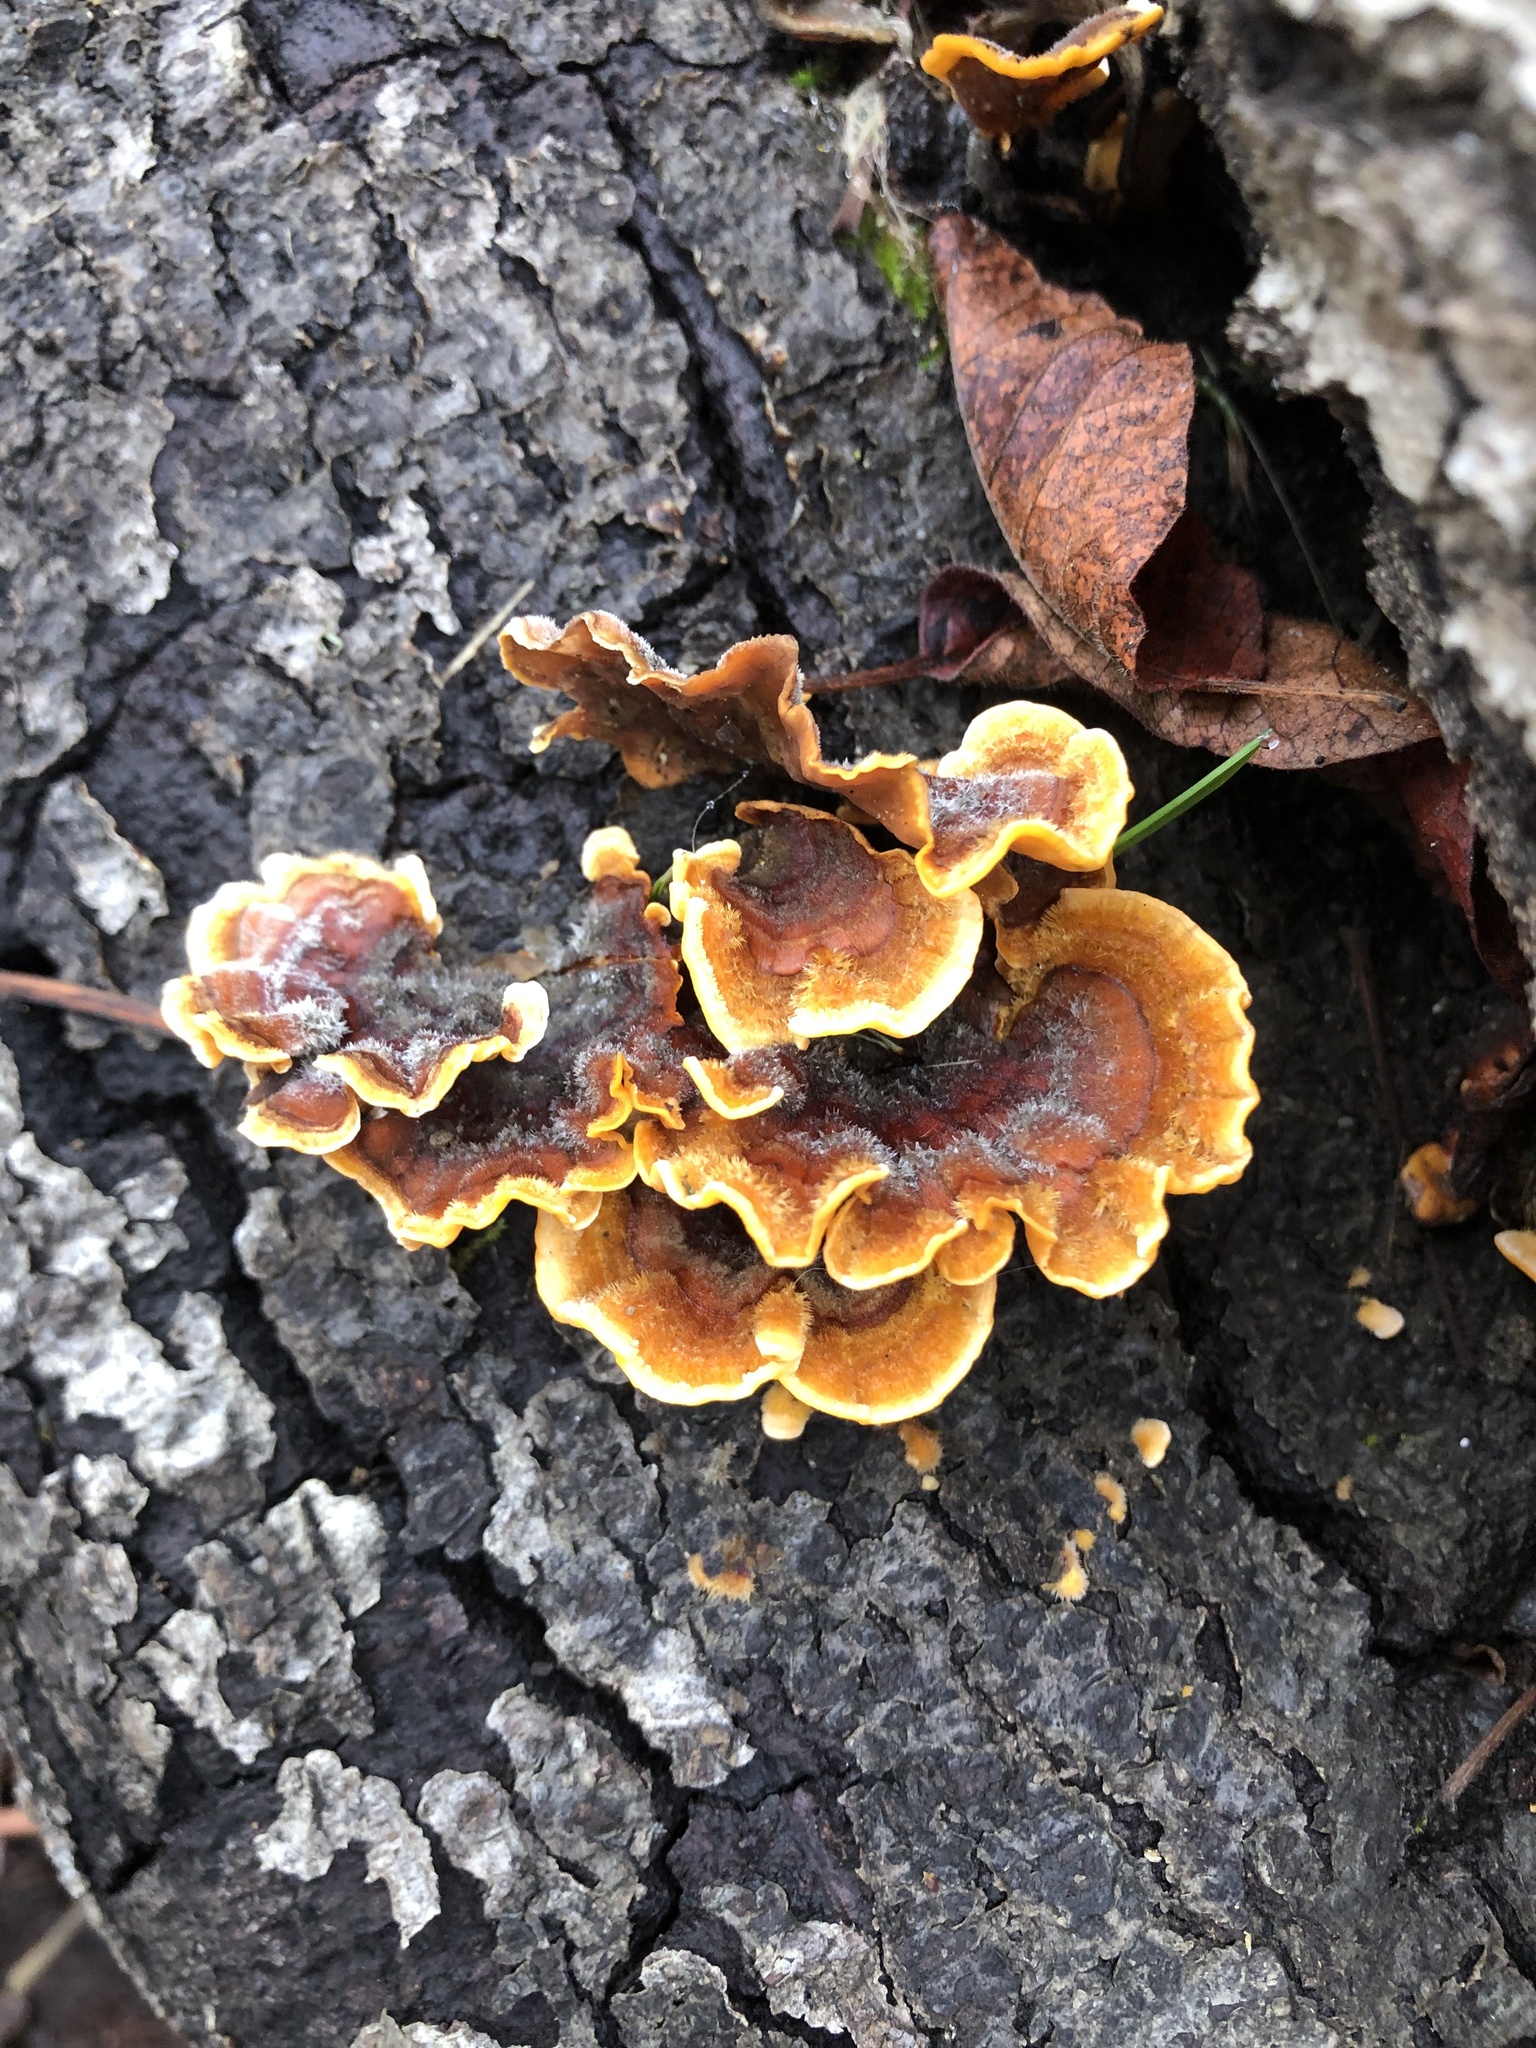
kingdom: Fungi
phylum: Basidiomycota
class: Agaricomycetes
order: Russulales
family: Stereaceae
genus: Stereum
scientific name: Stereum hirsutum
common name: Hairy curtain crust
